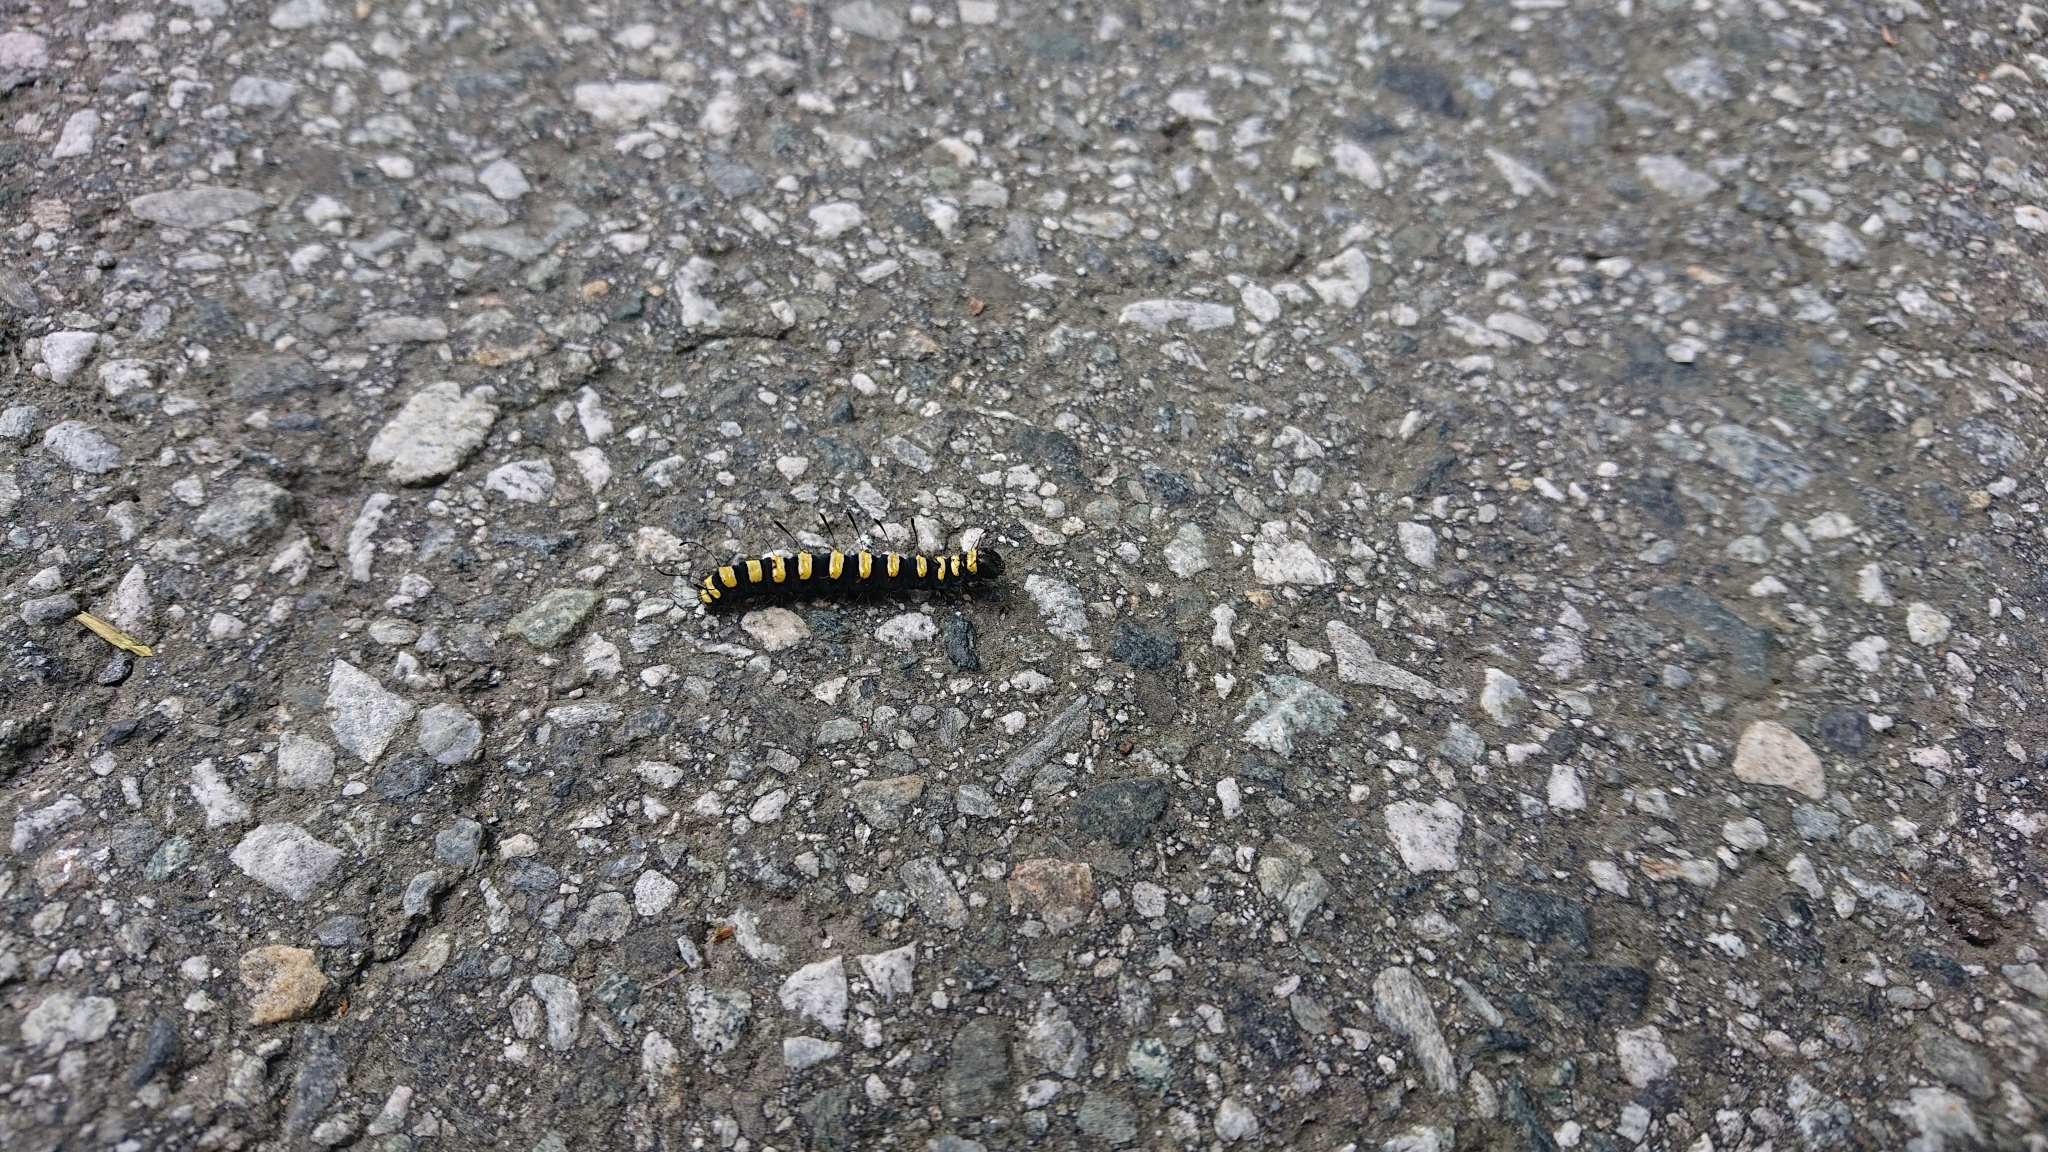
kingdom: Animalia
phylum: Arthropoda
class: Insecta
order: Lepidoptera
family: Noctuidae
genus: Acronicta
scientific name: Acronicta alni
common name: Alder moth
